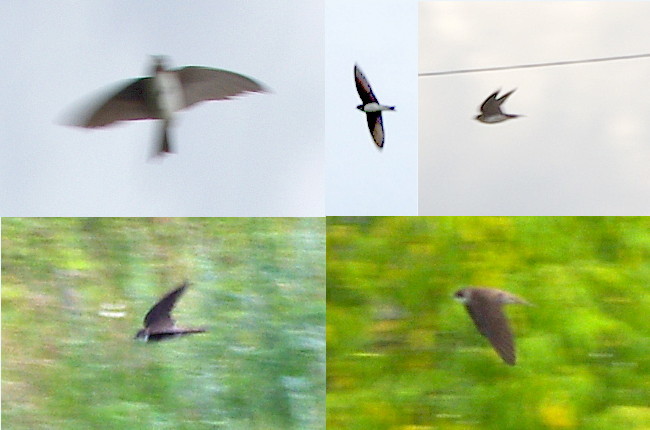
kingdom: Animalia
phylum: Chordata
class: Aves
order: Passeriformes
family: Hirundinidae
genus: Riparia
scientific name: Riparia riparia
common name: Sand martin
